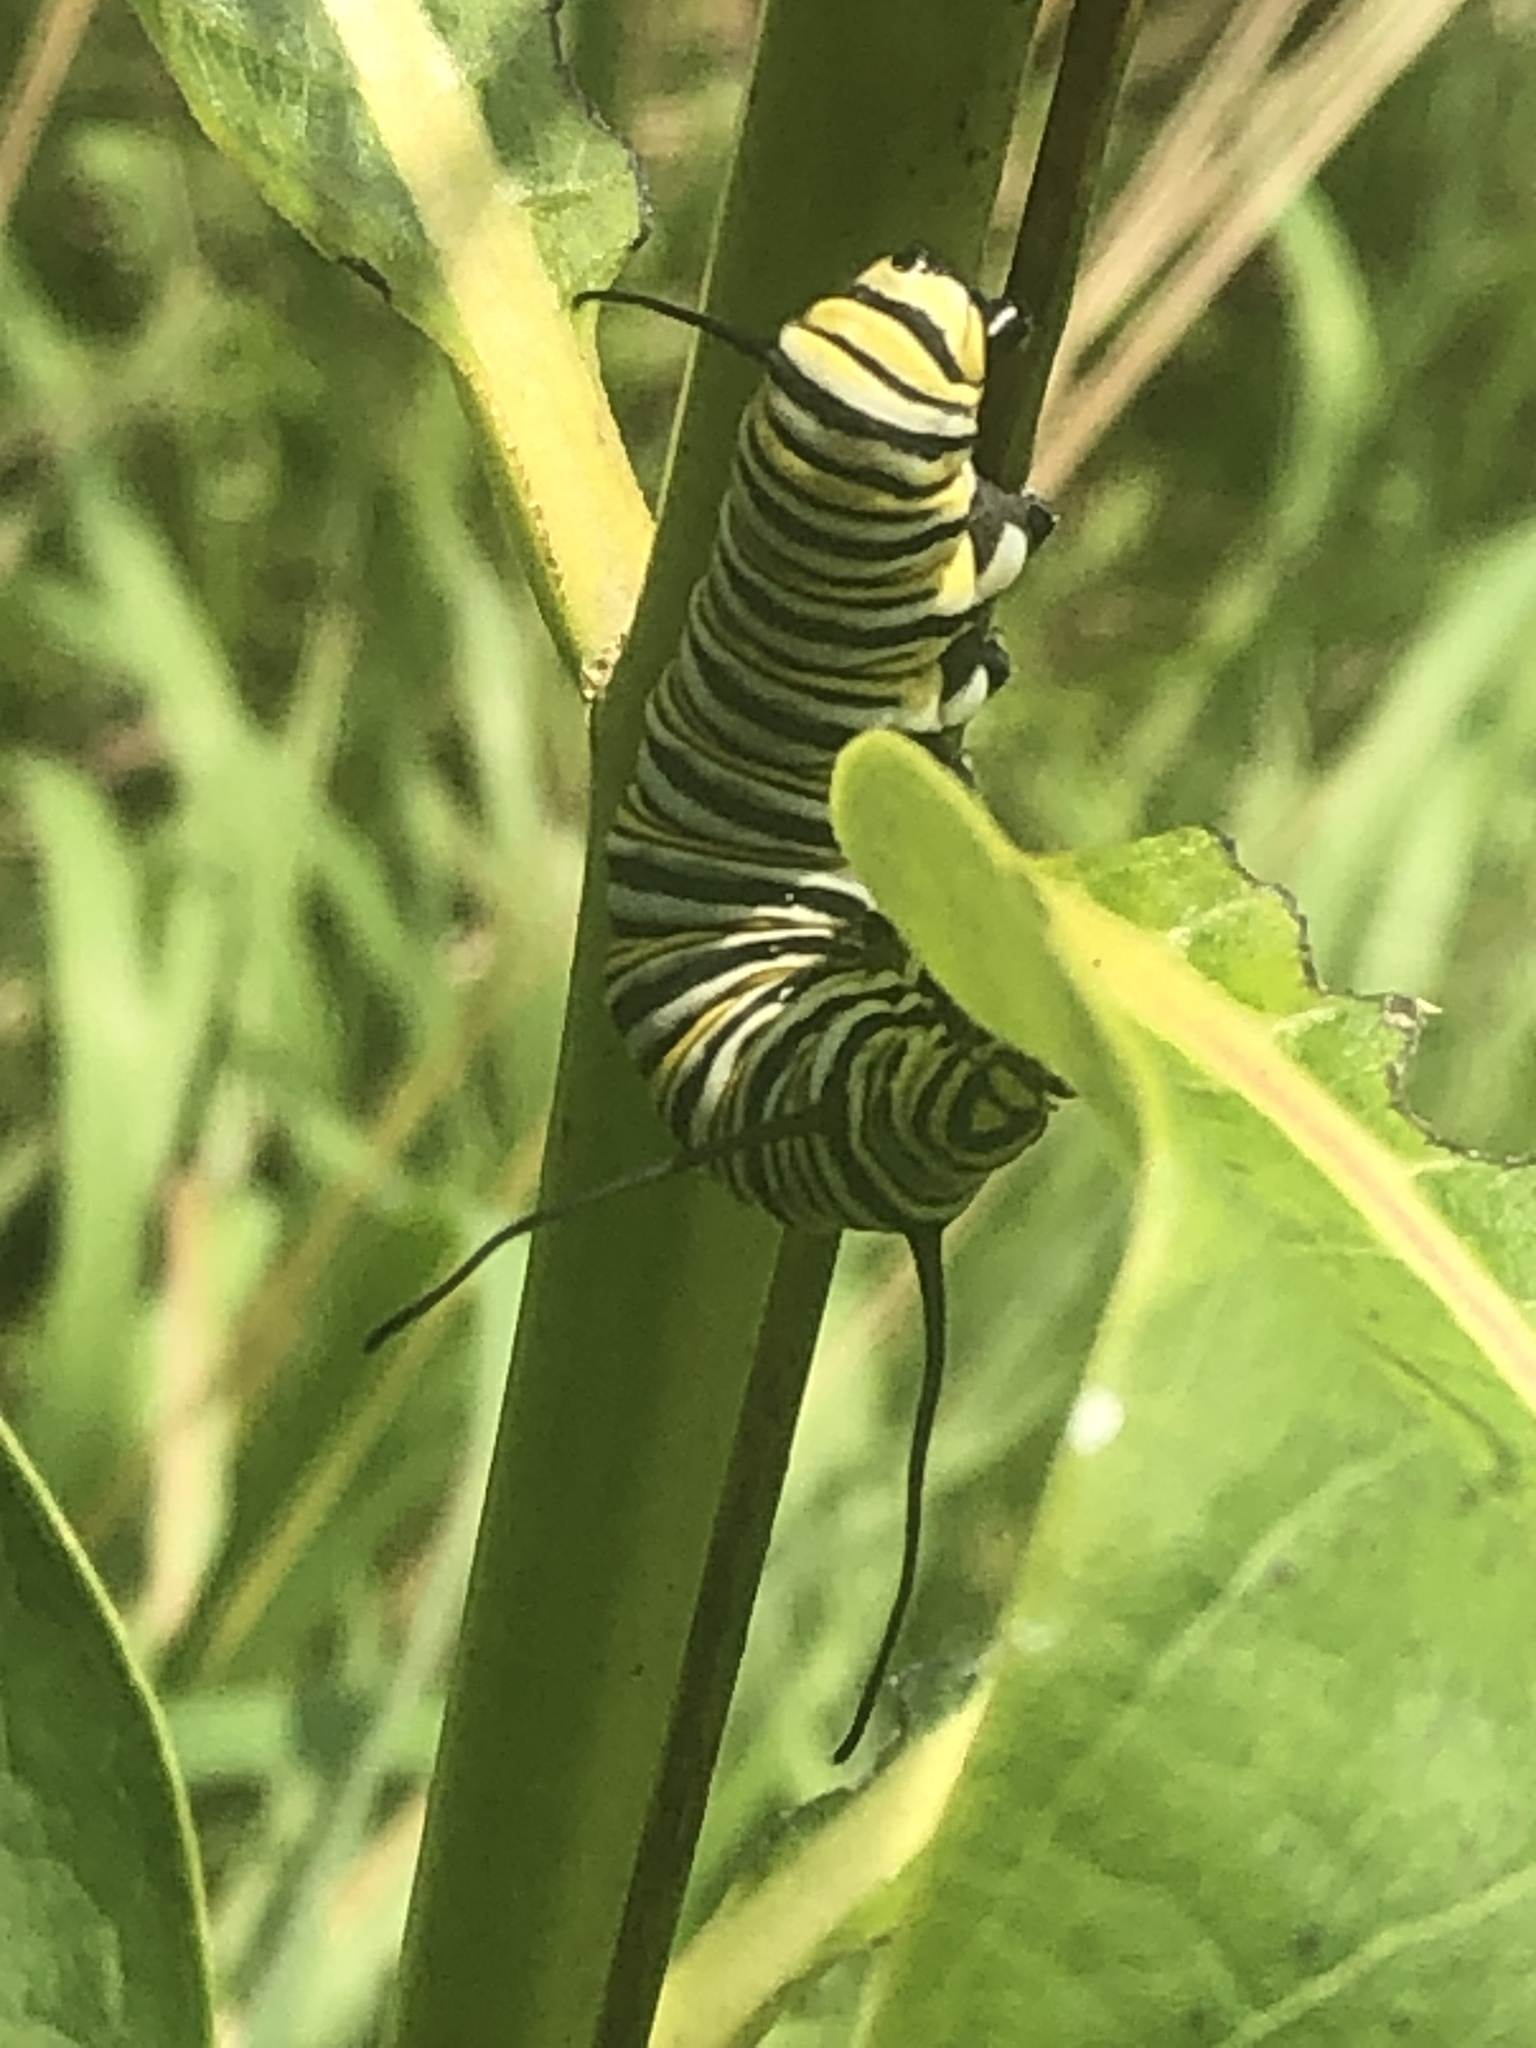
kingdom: Animalia
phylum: Arthropoda
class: Insecta
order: Lepidoptera
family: Nymphalidae
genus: Danaus
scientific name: Danaus plexippus
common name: Monarch
